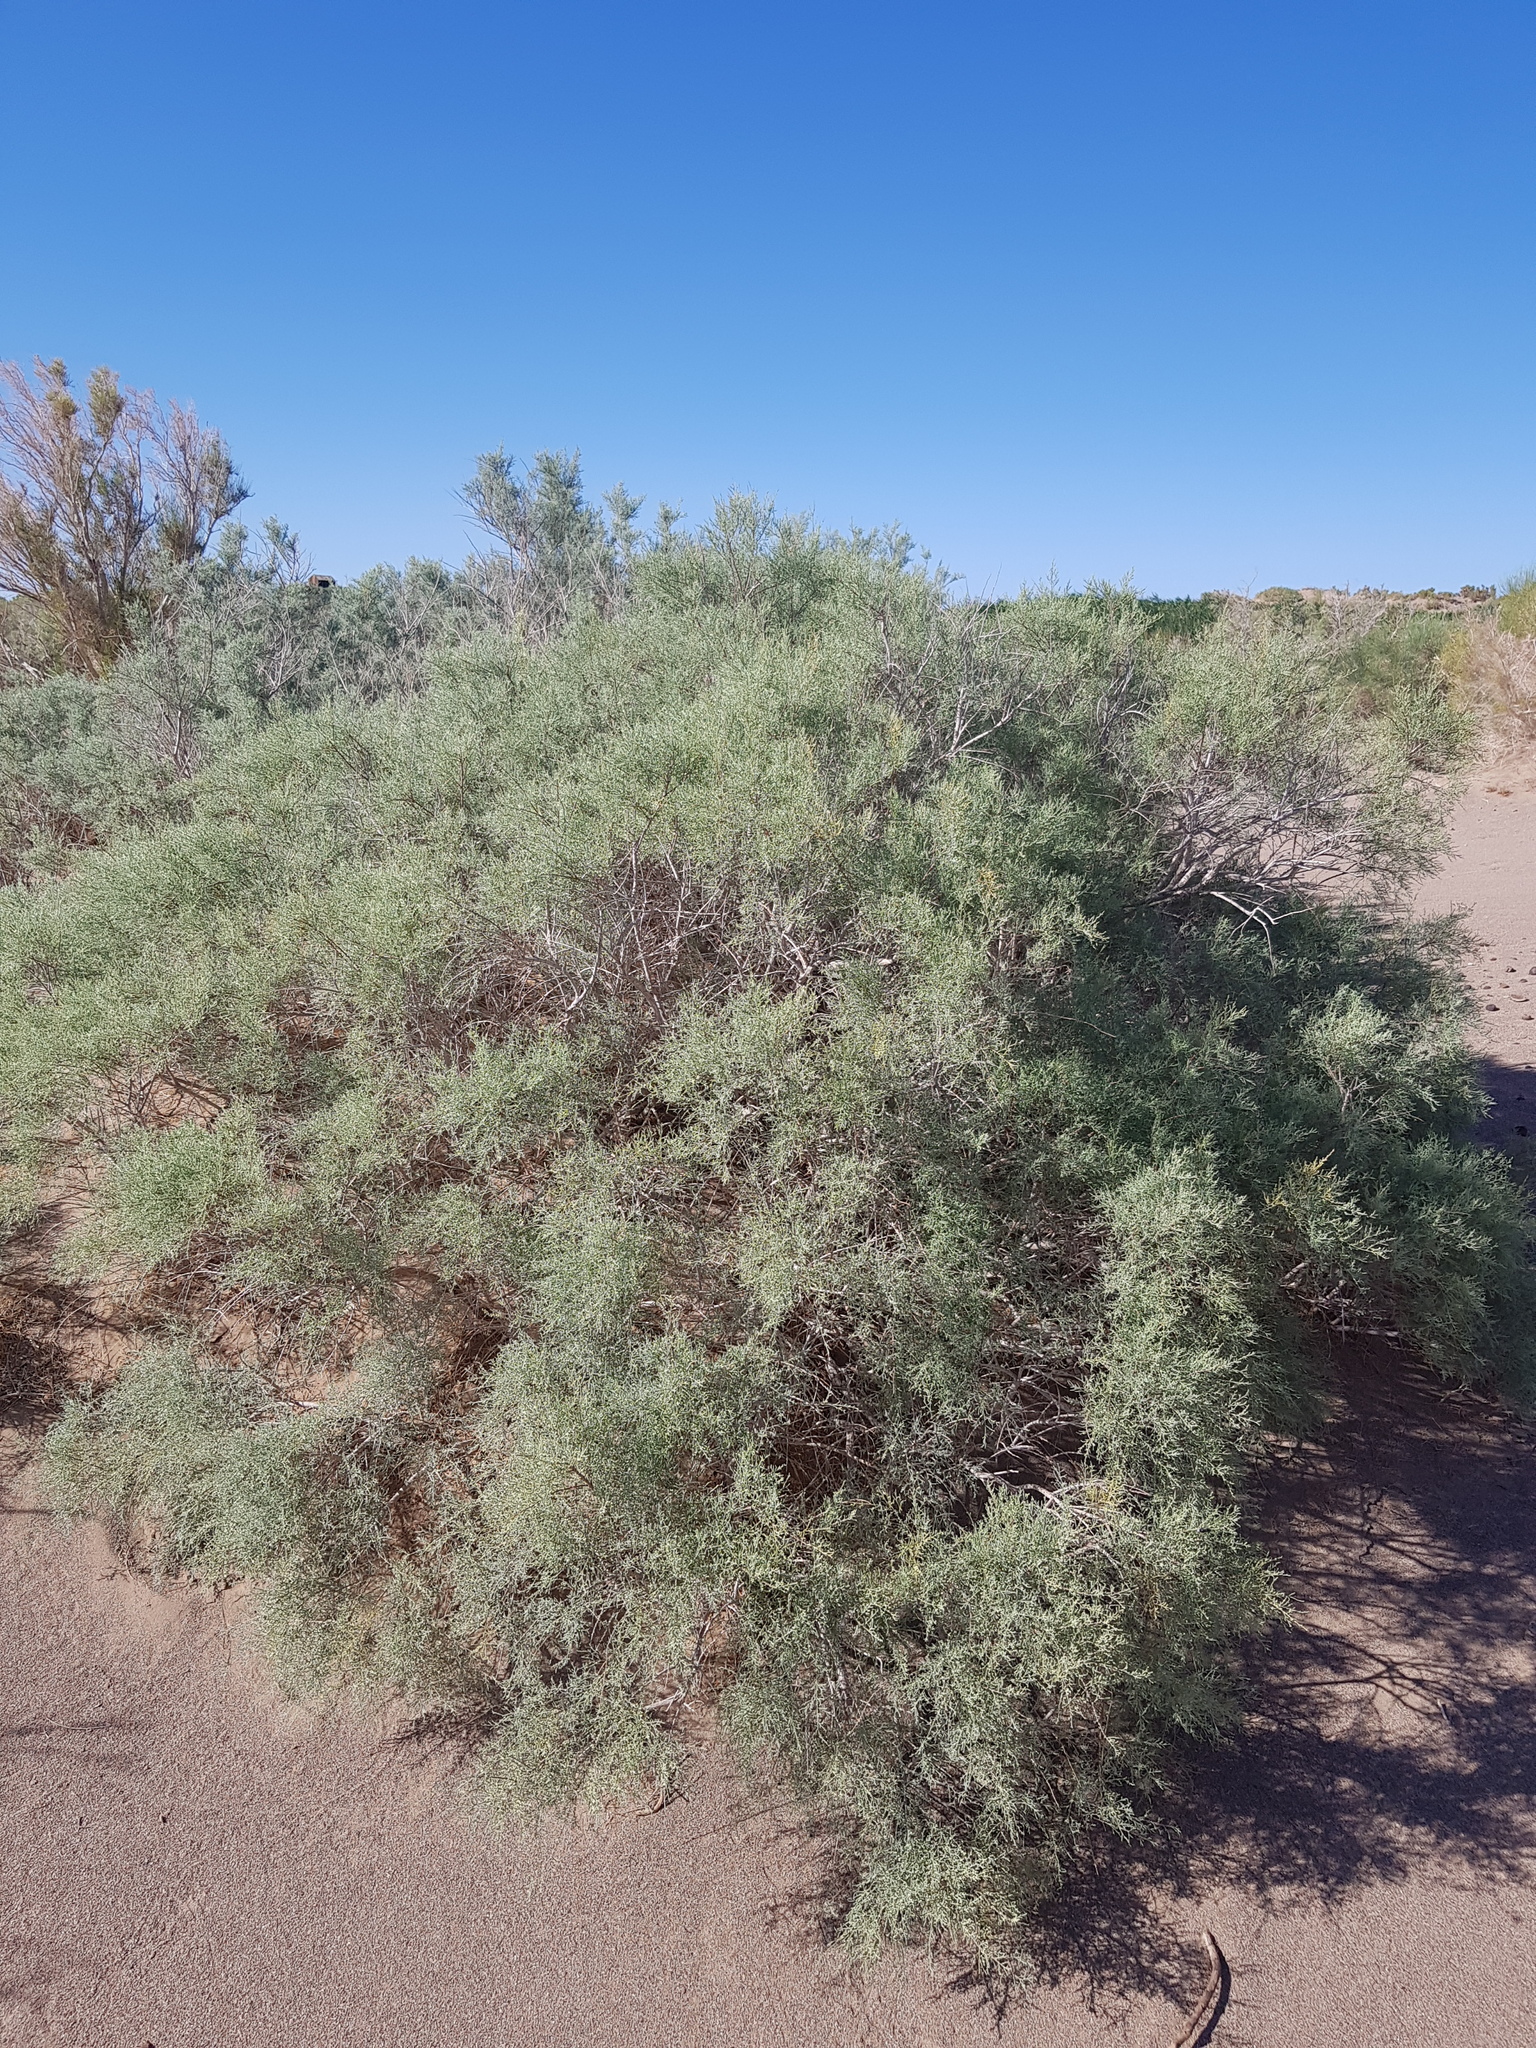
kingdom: Plantae
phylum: Tracheophyta
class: Magnoliopsida
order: Caryophyllales
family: Tamaricaceae
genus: Tamarix
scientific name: Tamarix ramosissima
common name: Pink tamarisk
